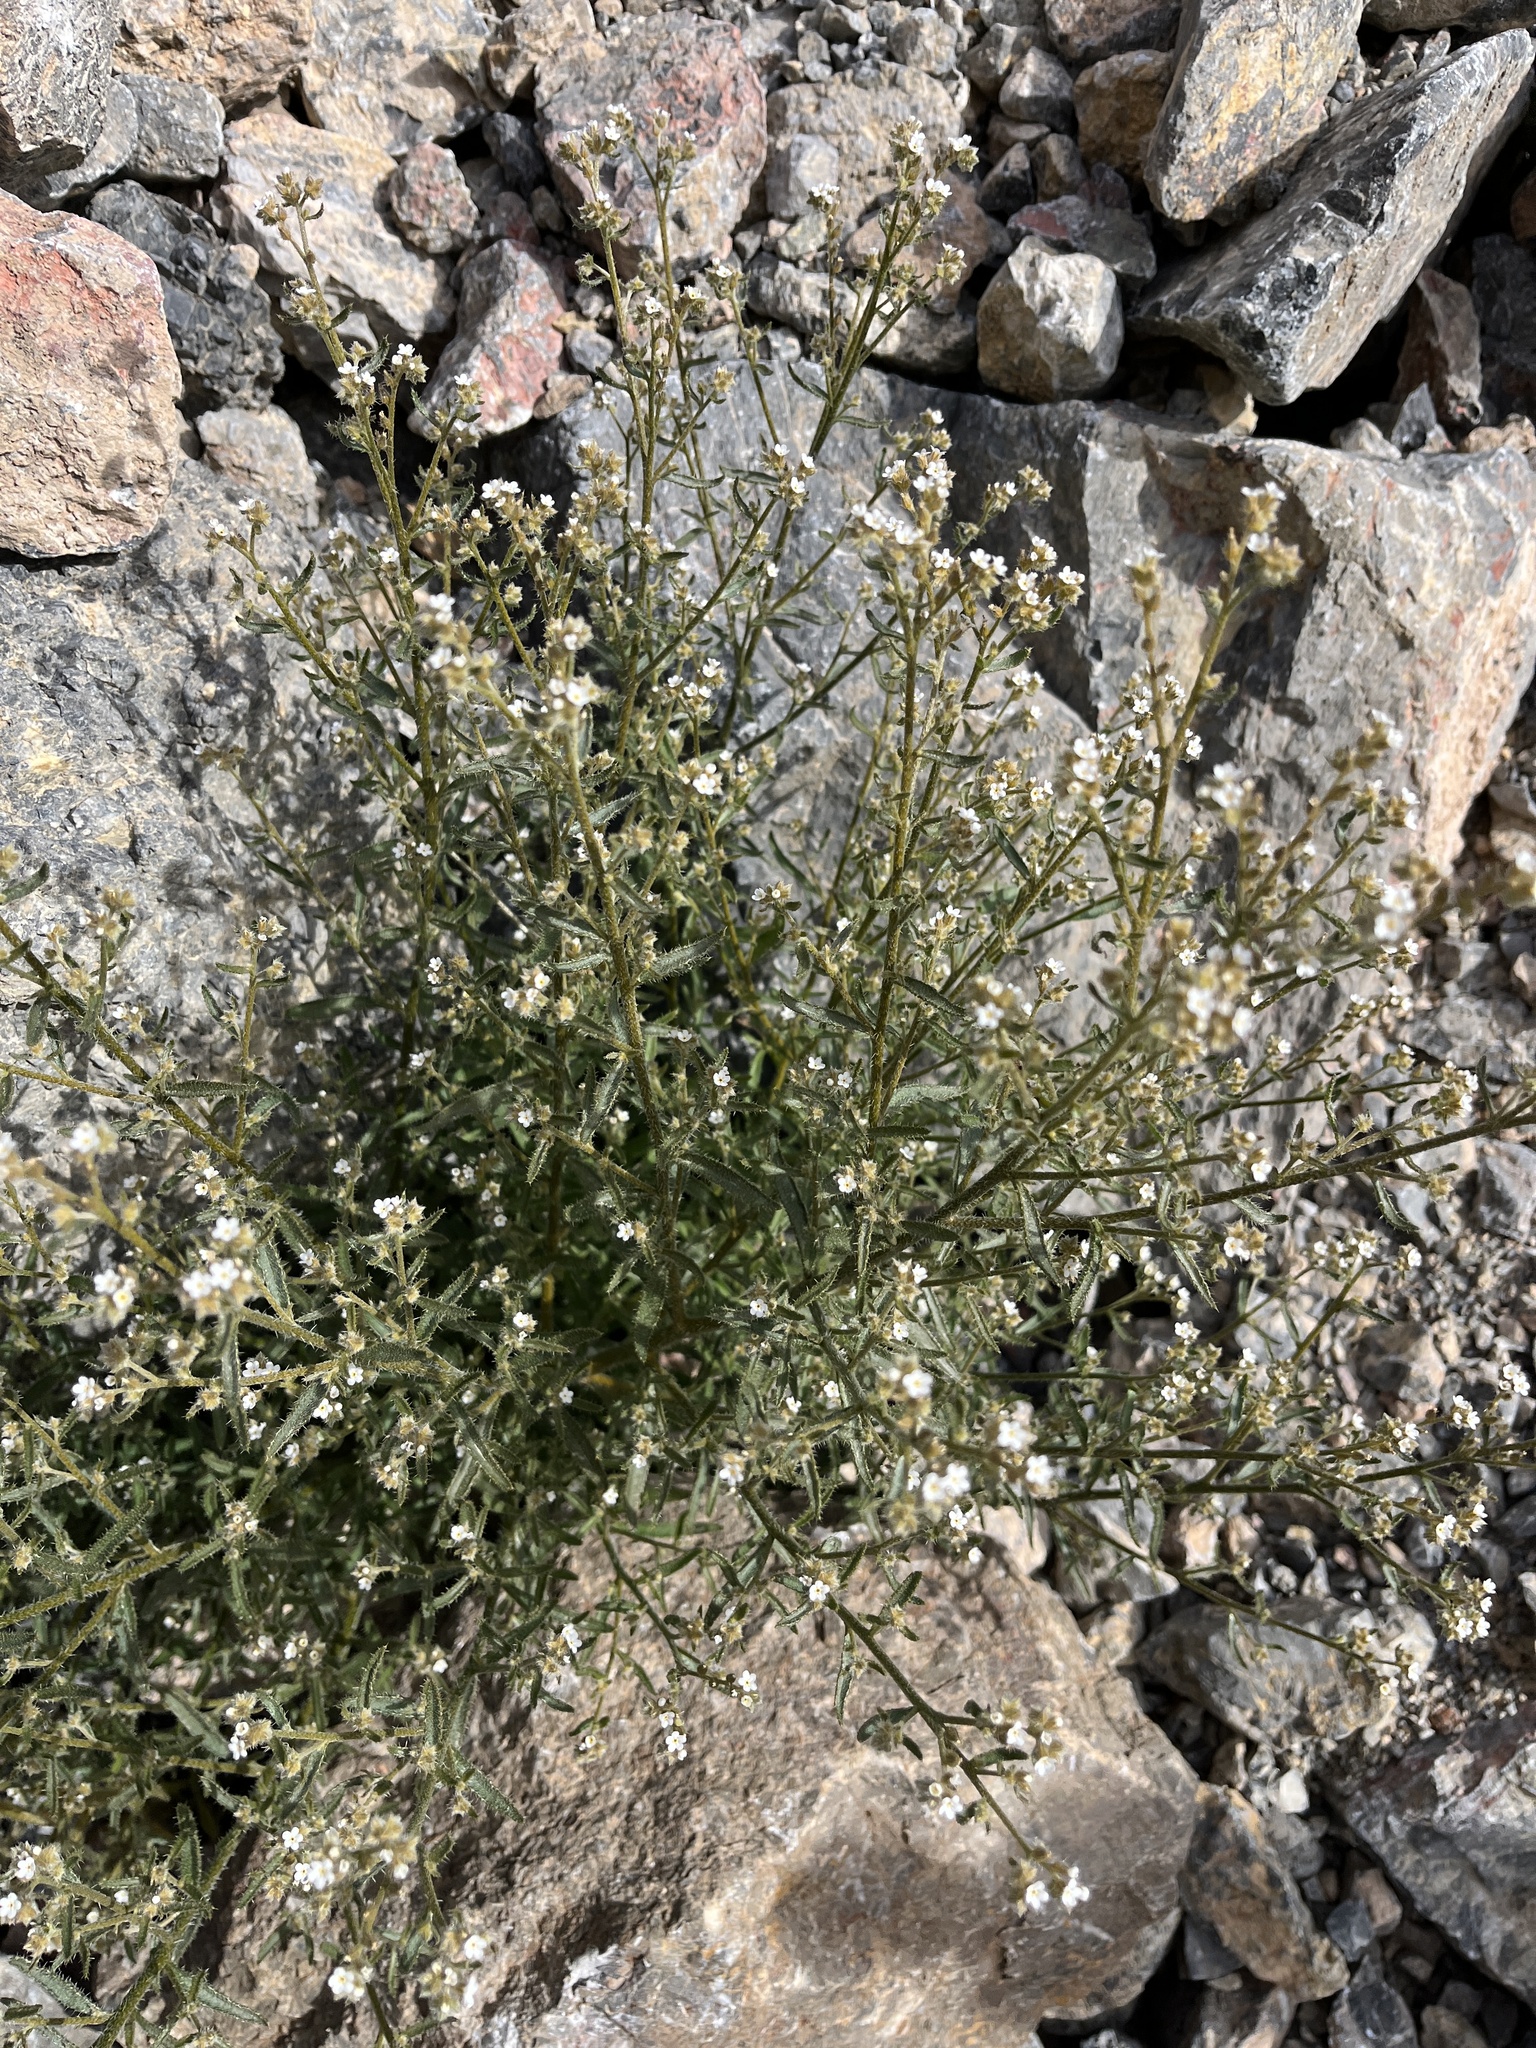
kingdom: Plantae
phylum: Tracheophyta
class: Magnoliopsida
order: Boraginales
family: Boraginaceae
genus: Johnstonella
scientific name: Johnstonella holoptera
